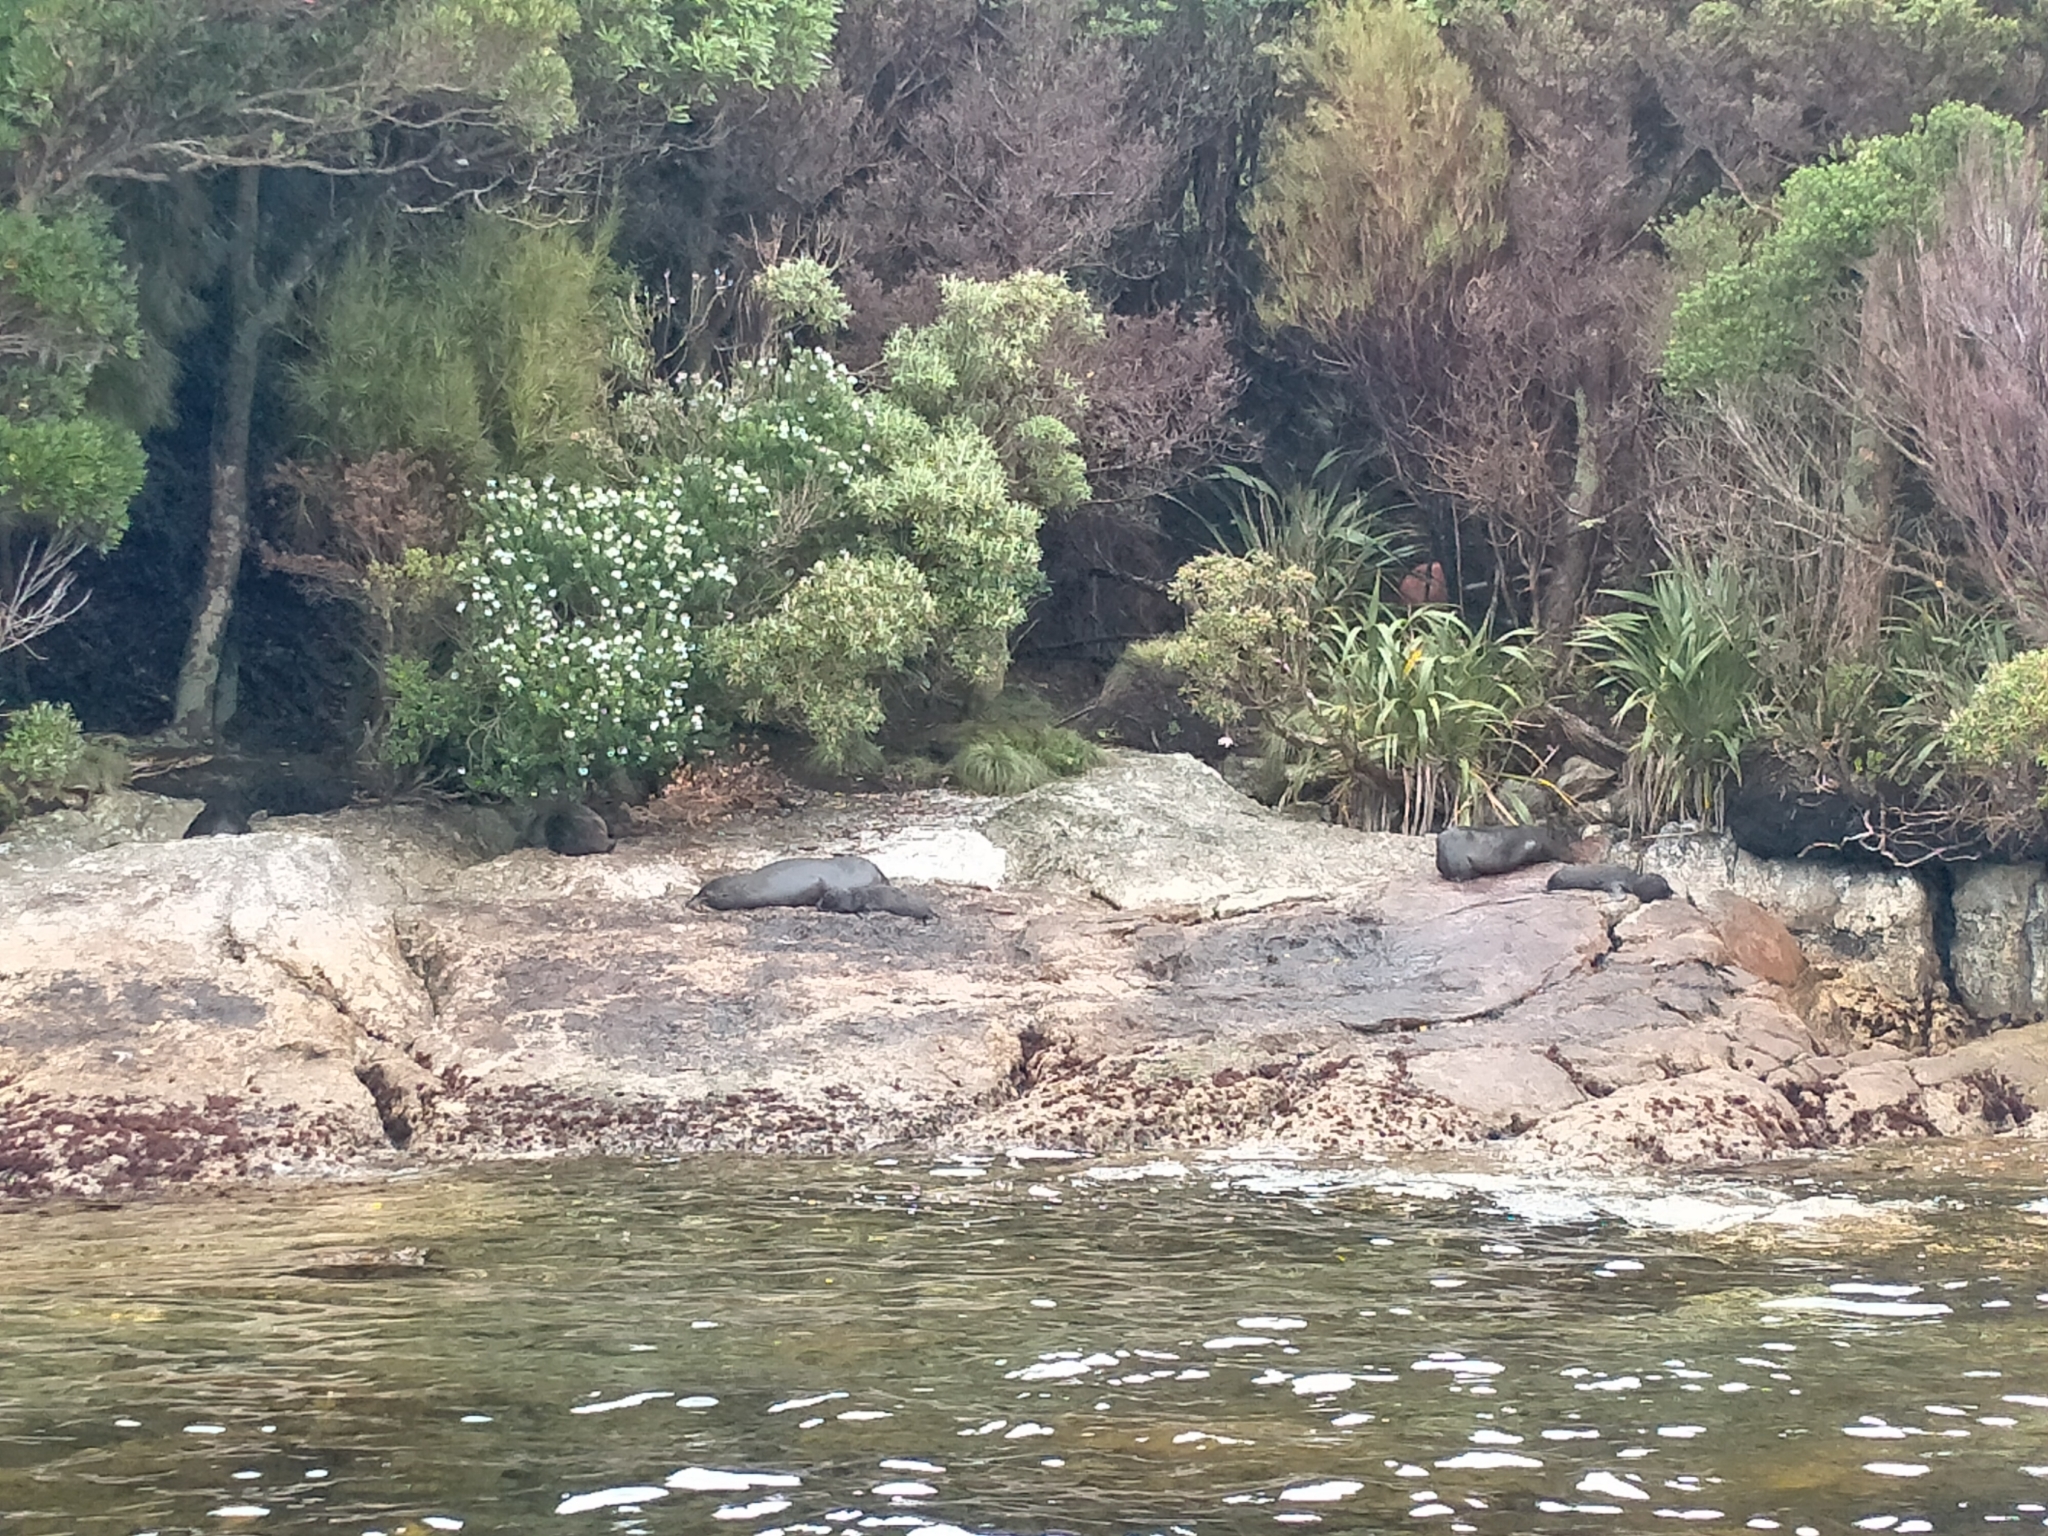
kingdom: Animalia
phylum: Chordata
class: Mammalia
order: Carnivora
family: Otariidae
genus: Arctocephalus
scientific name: Arctocephalus forsteri
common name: New zealand fur seal
